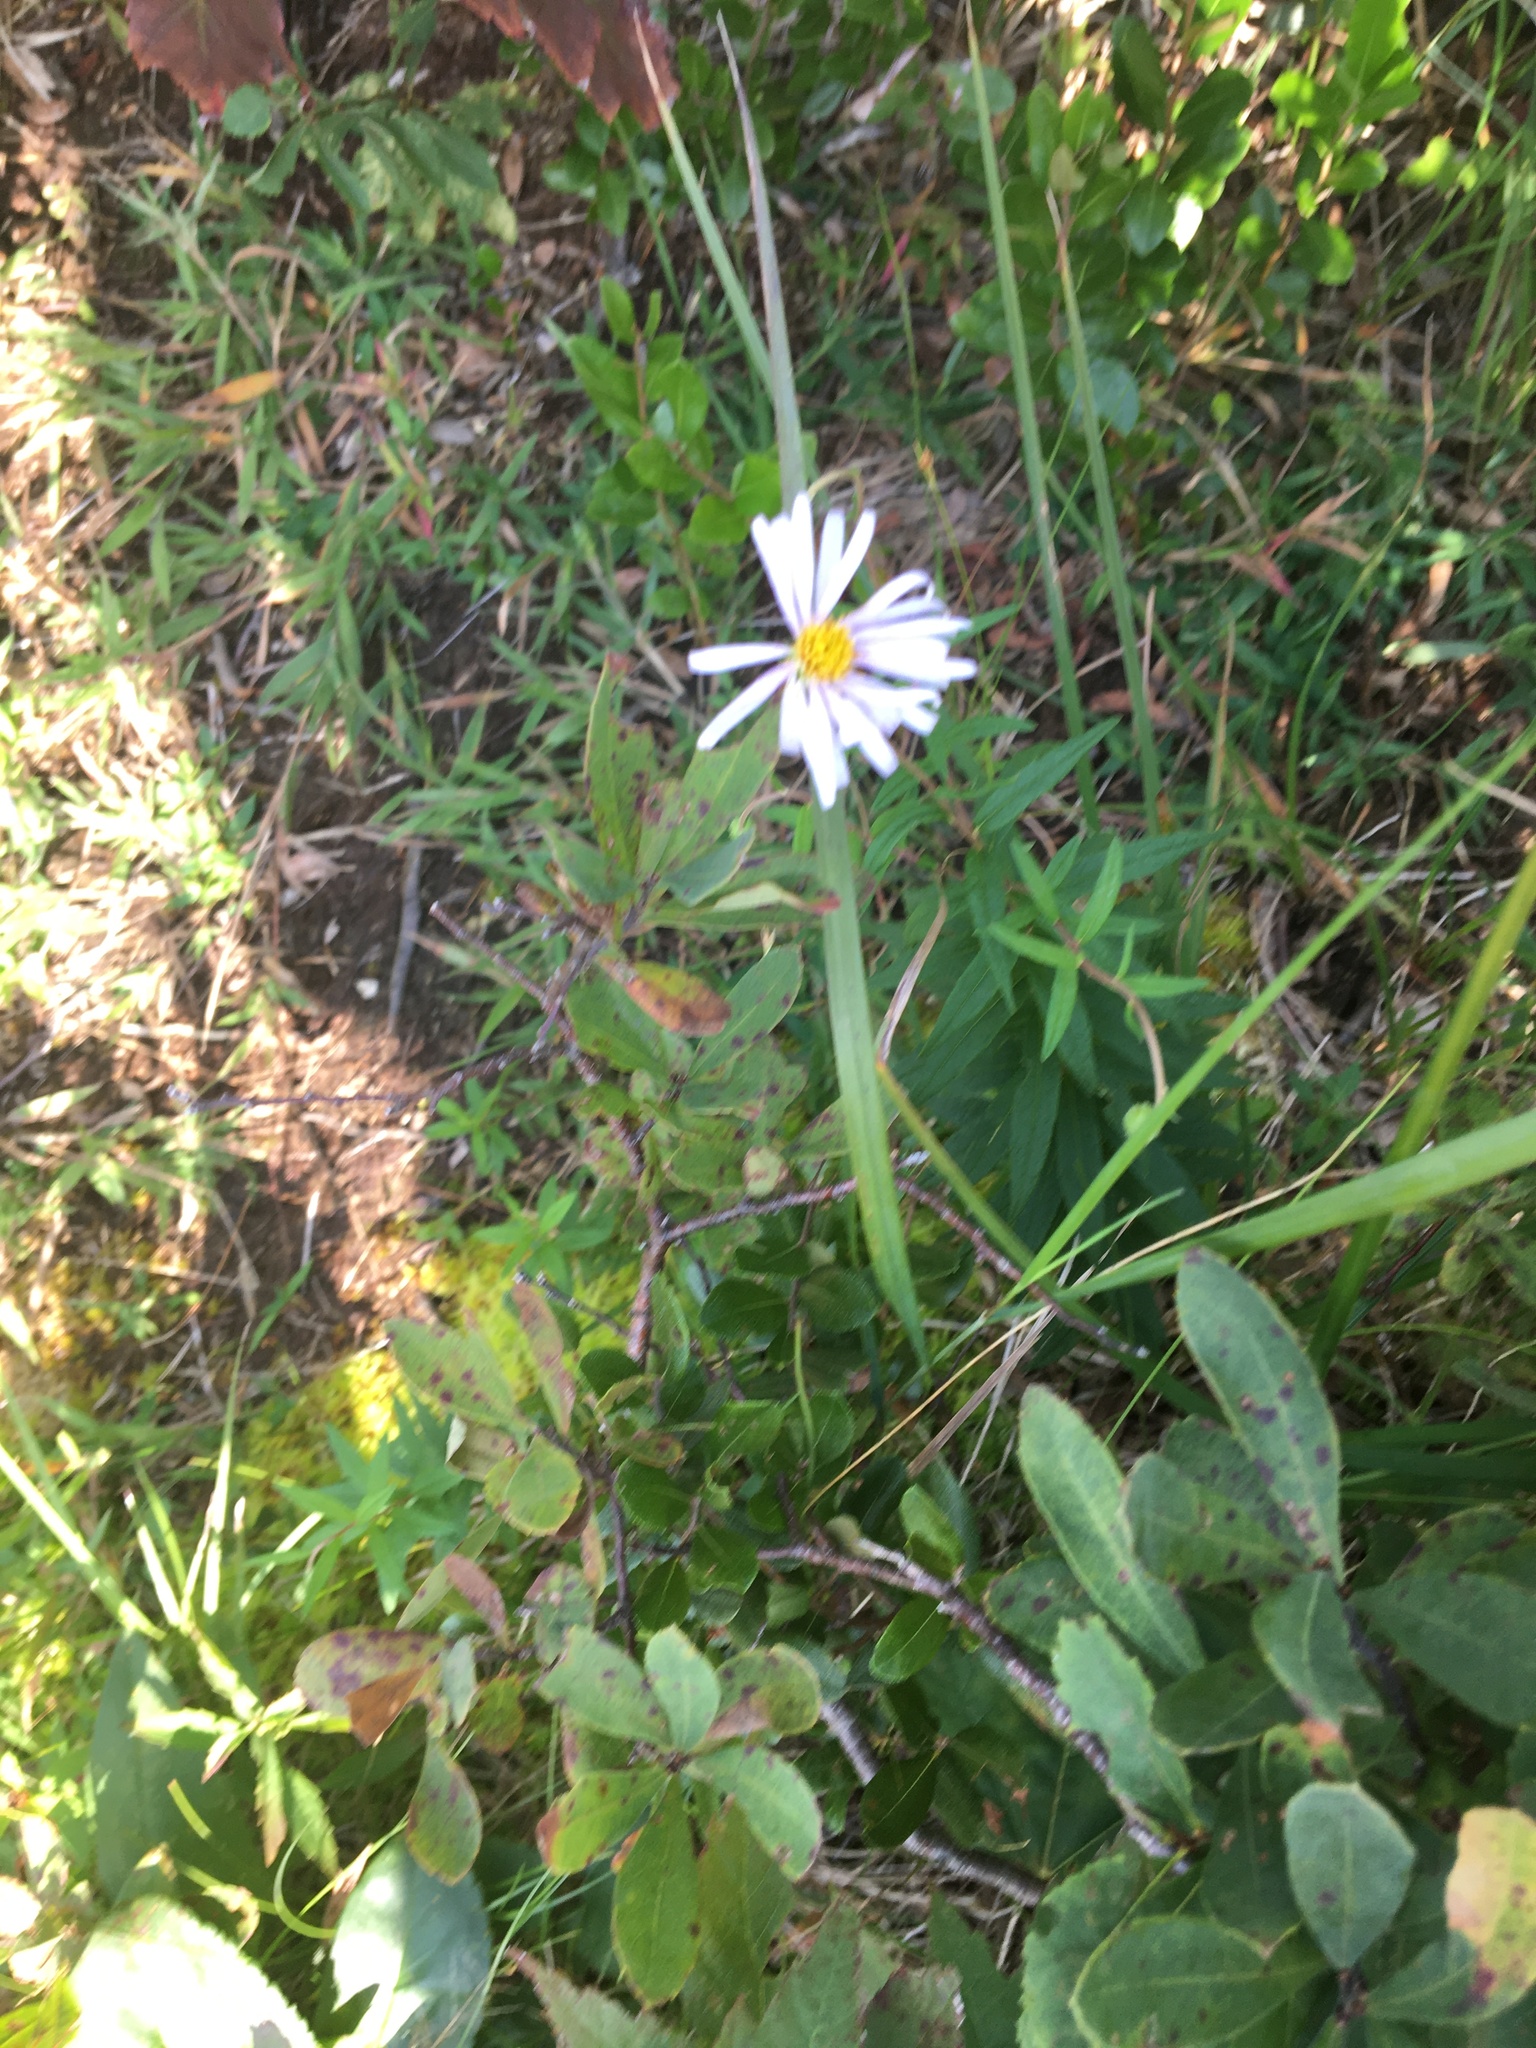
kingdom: Plantae
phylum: Tracheophyta
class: Magnoliopsida
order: Asterales
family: Asteraceae
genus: Oclemena
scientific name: Oclemena nemoralis
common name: Bog aster
